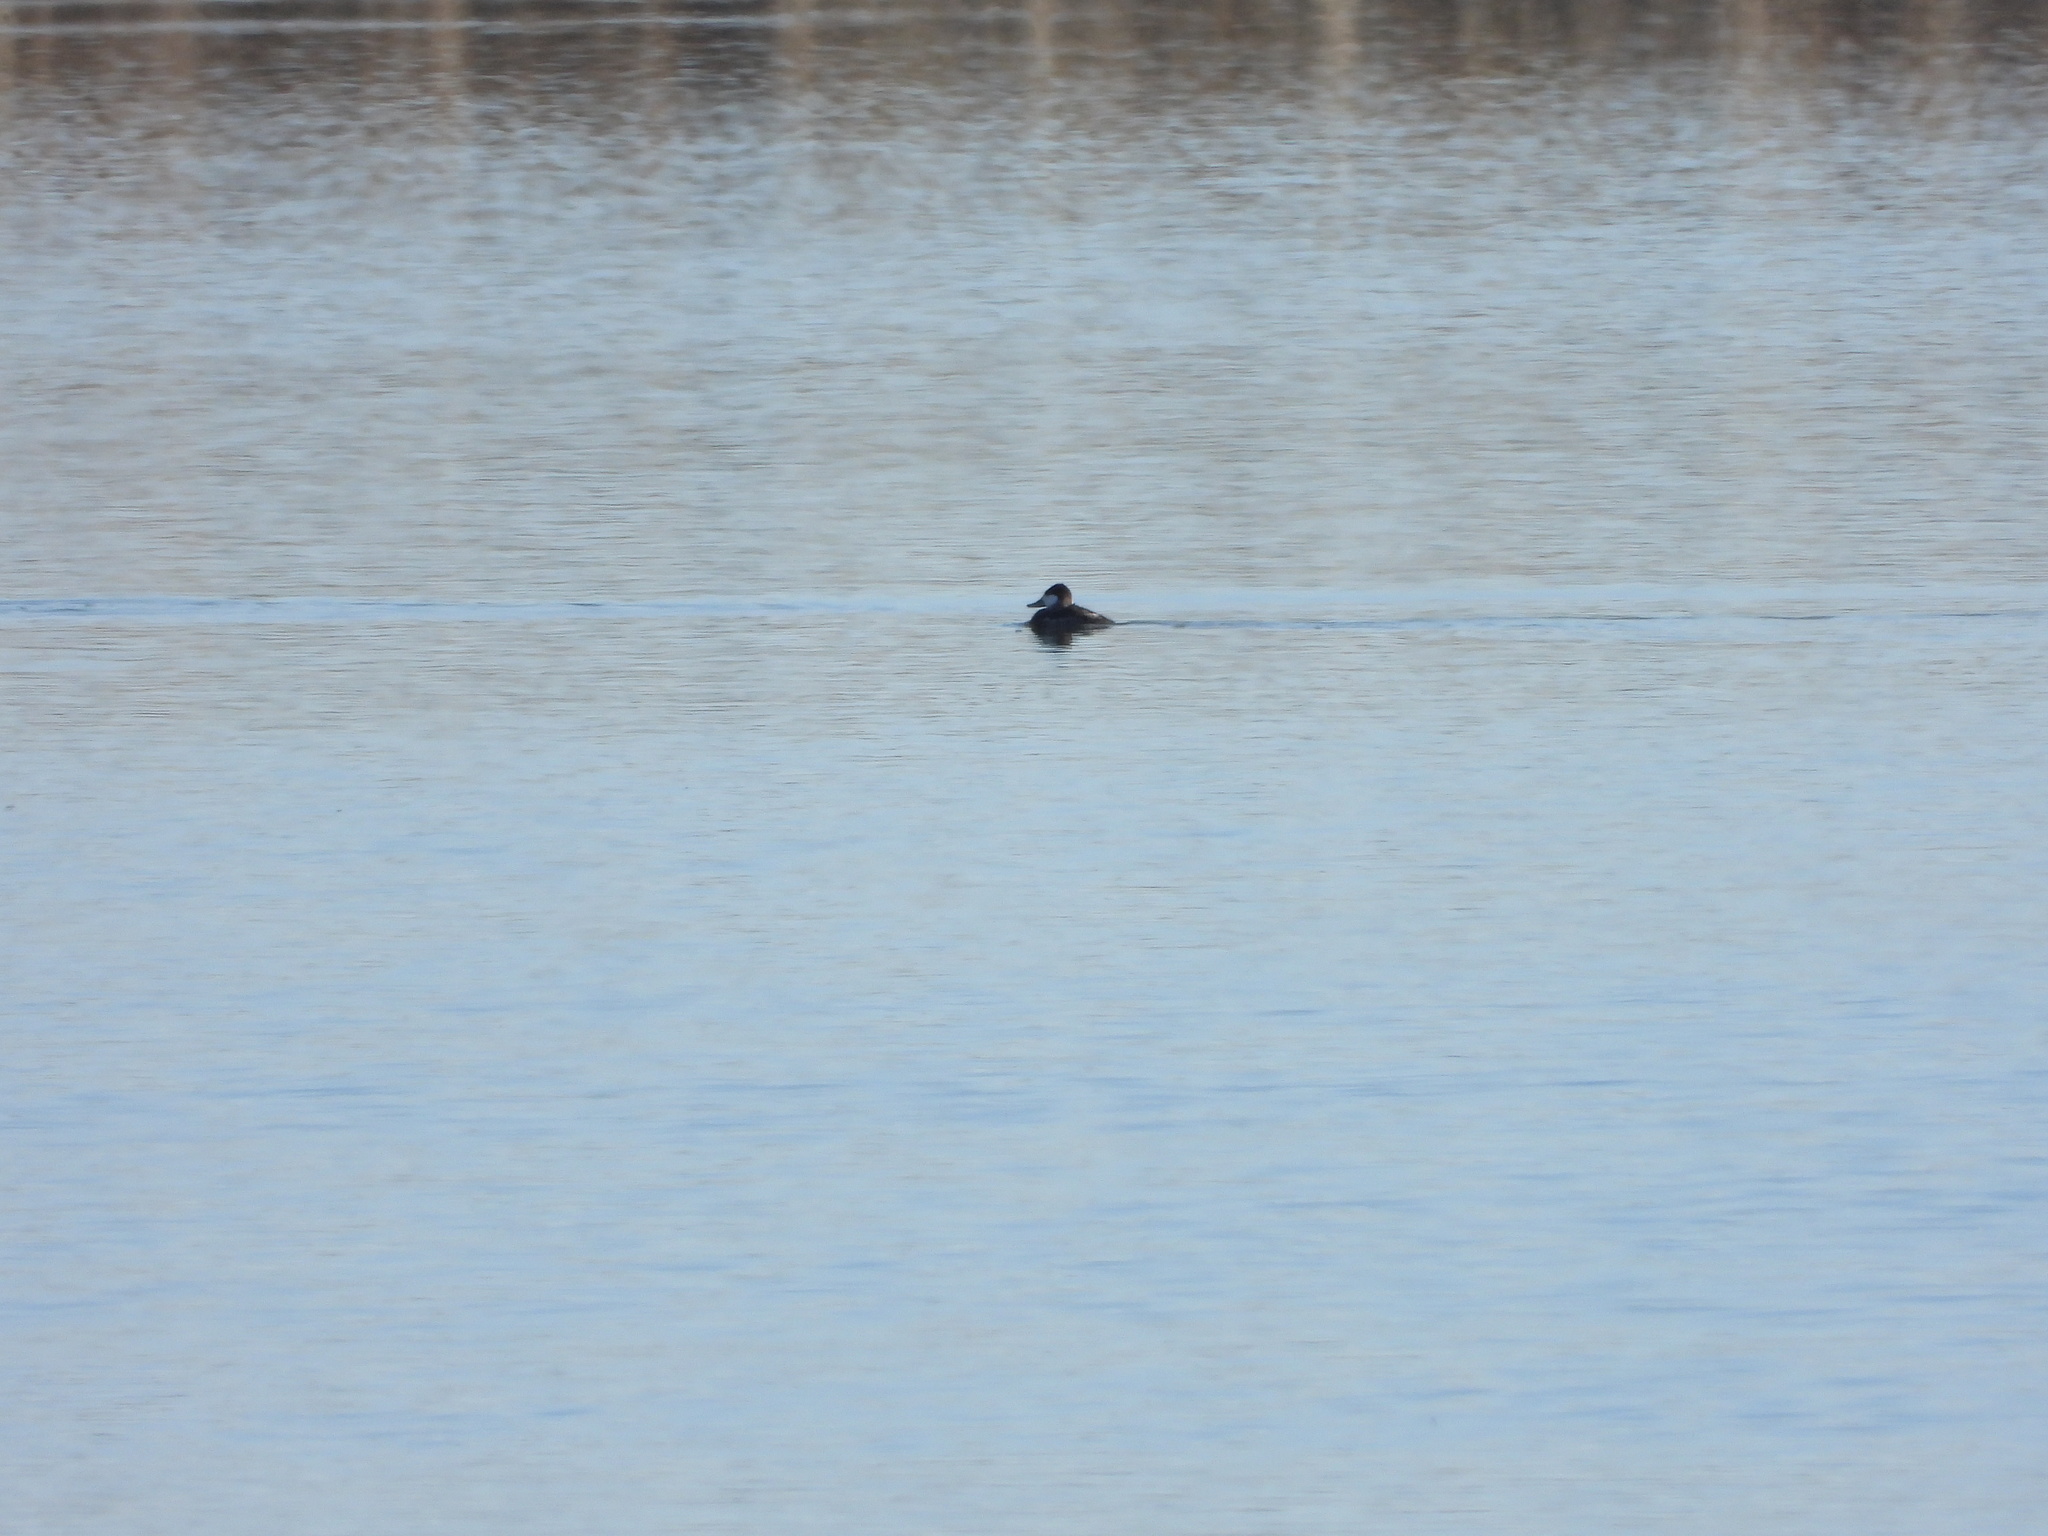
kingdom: Animalia
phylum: Chordata
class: Aves
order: Anseriformes
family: Anatidae
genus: Oxyura
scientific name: Oxyura jamaicensis
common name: Ruddy duck
